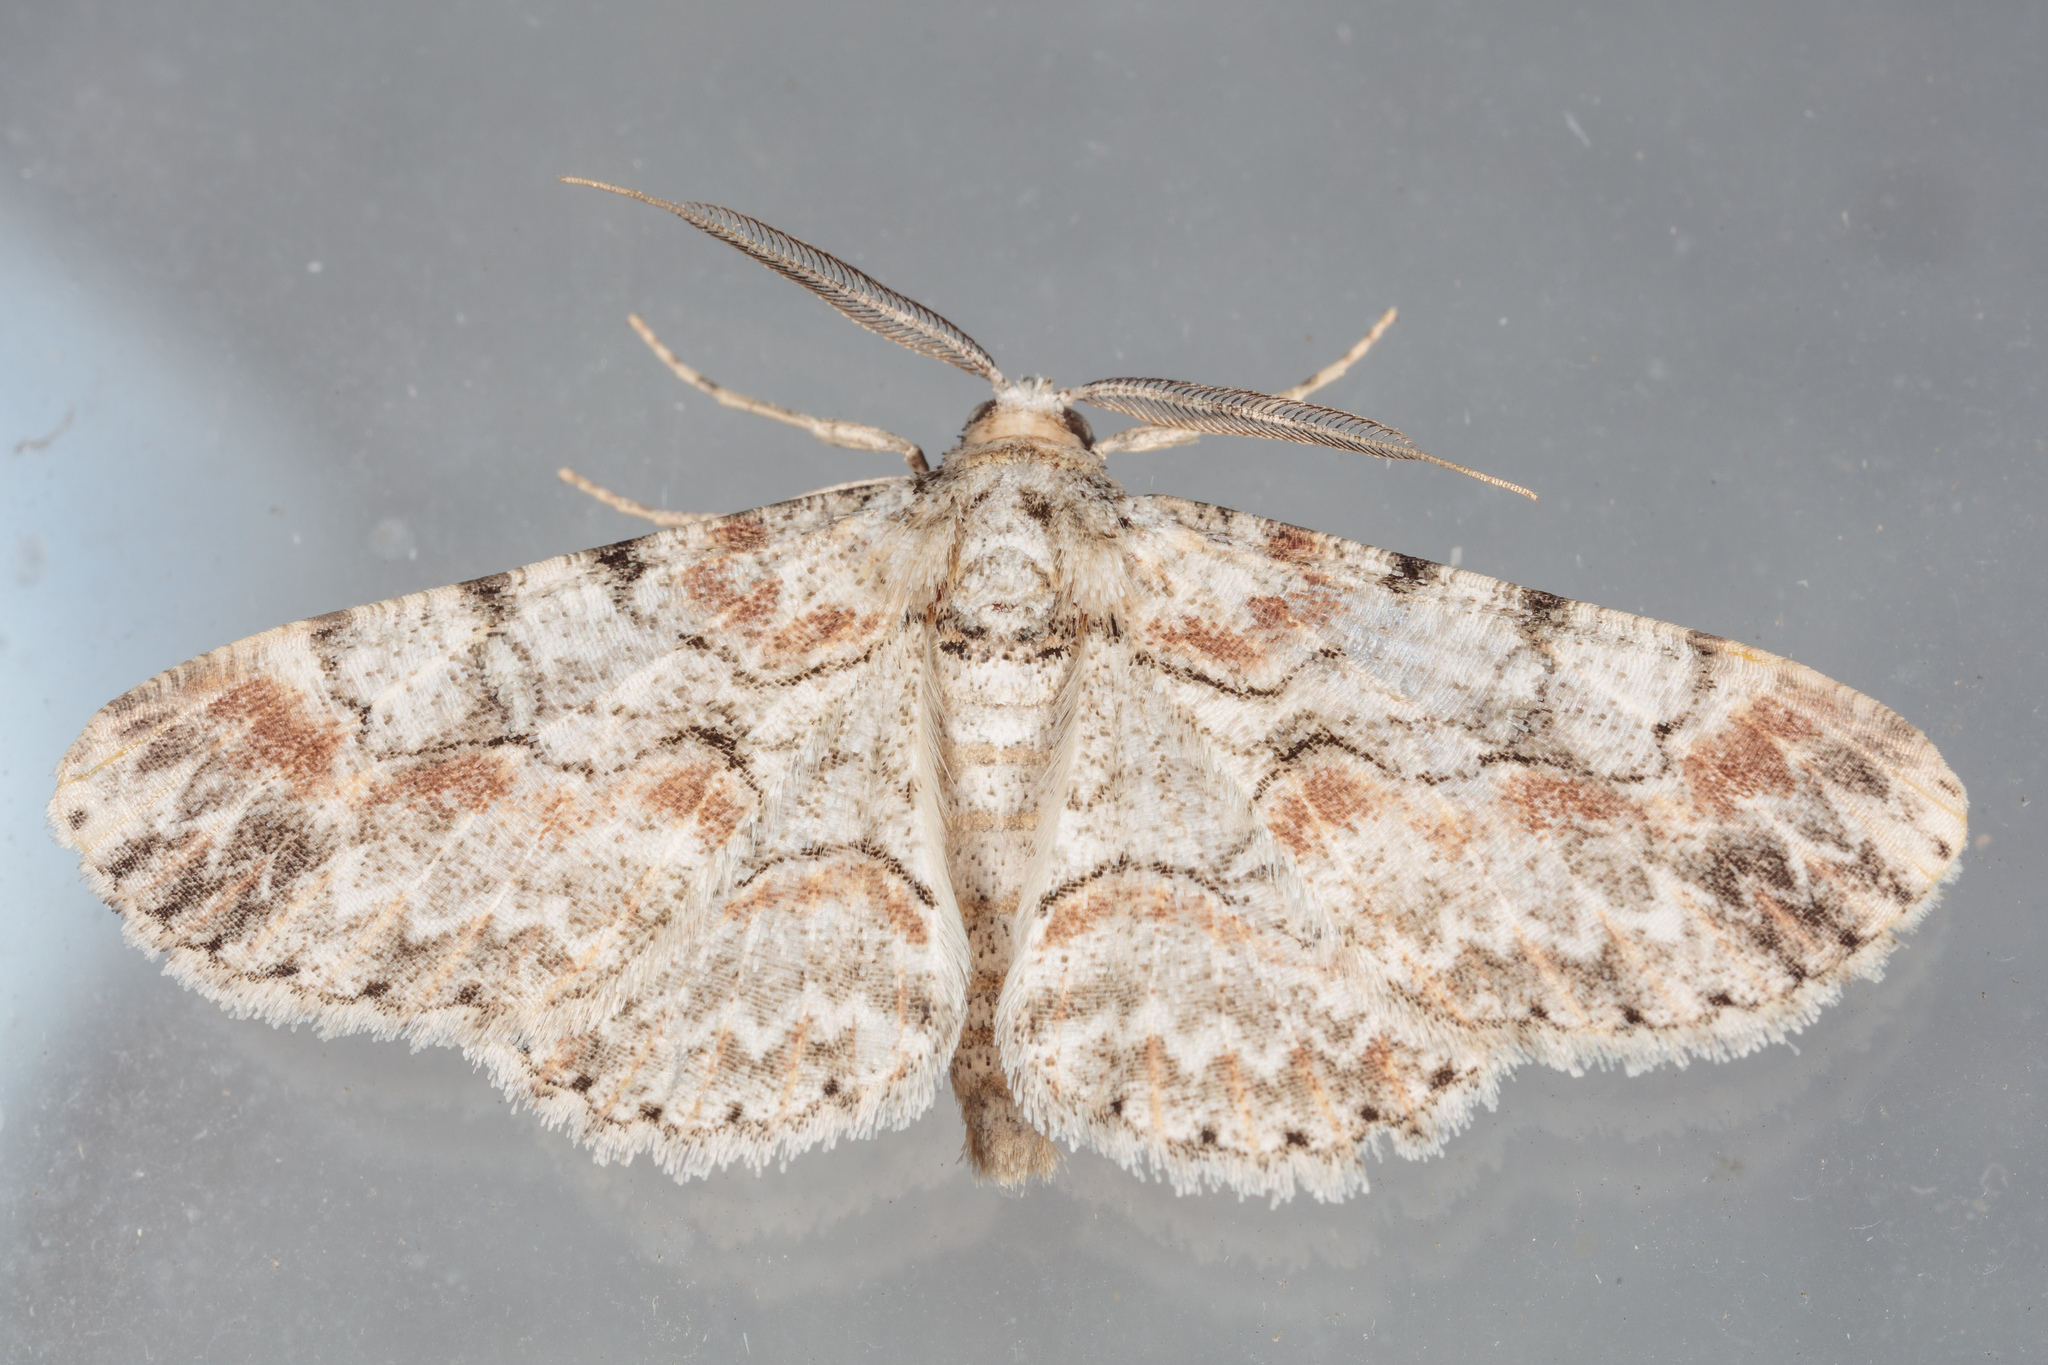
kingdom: Animalia
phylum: Arthropoda
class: Insecta
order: Lepidoptera
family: Geometridae
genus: Iridopsis
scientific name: Iridopsis defectaria
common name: Brown-shaded gray
